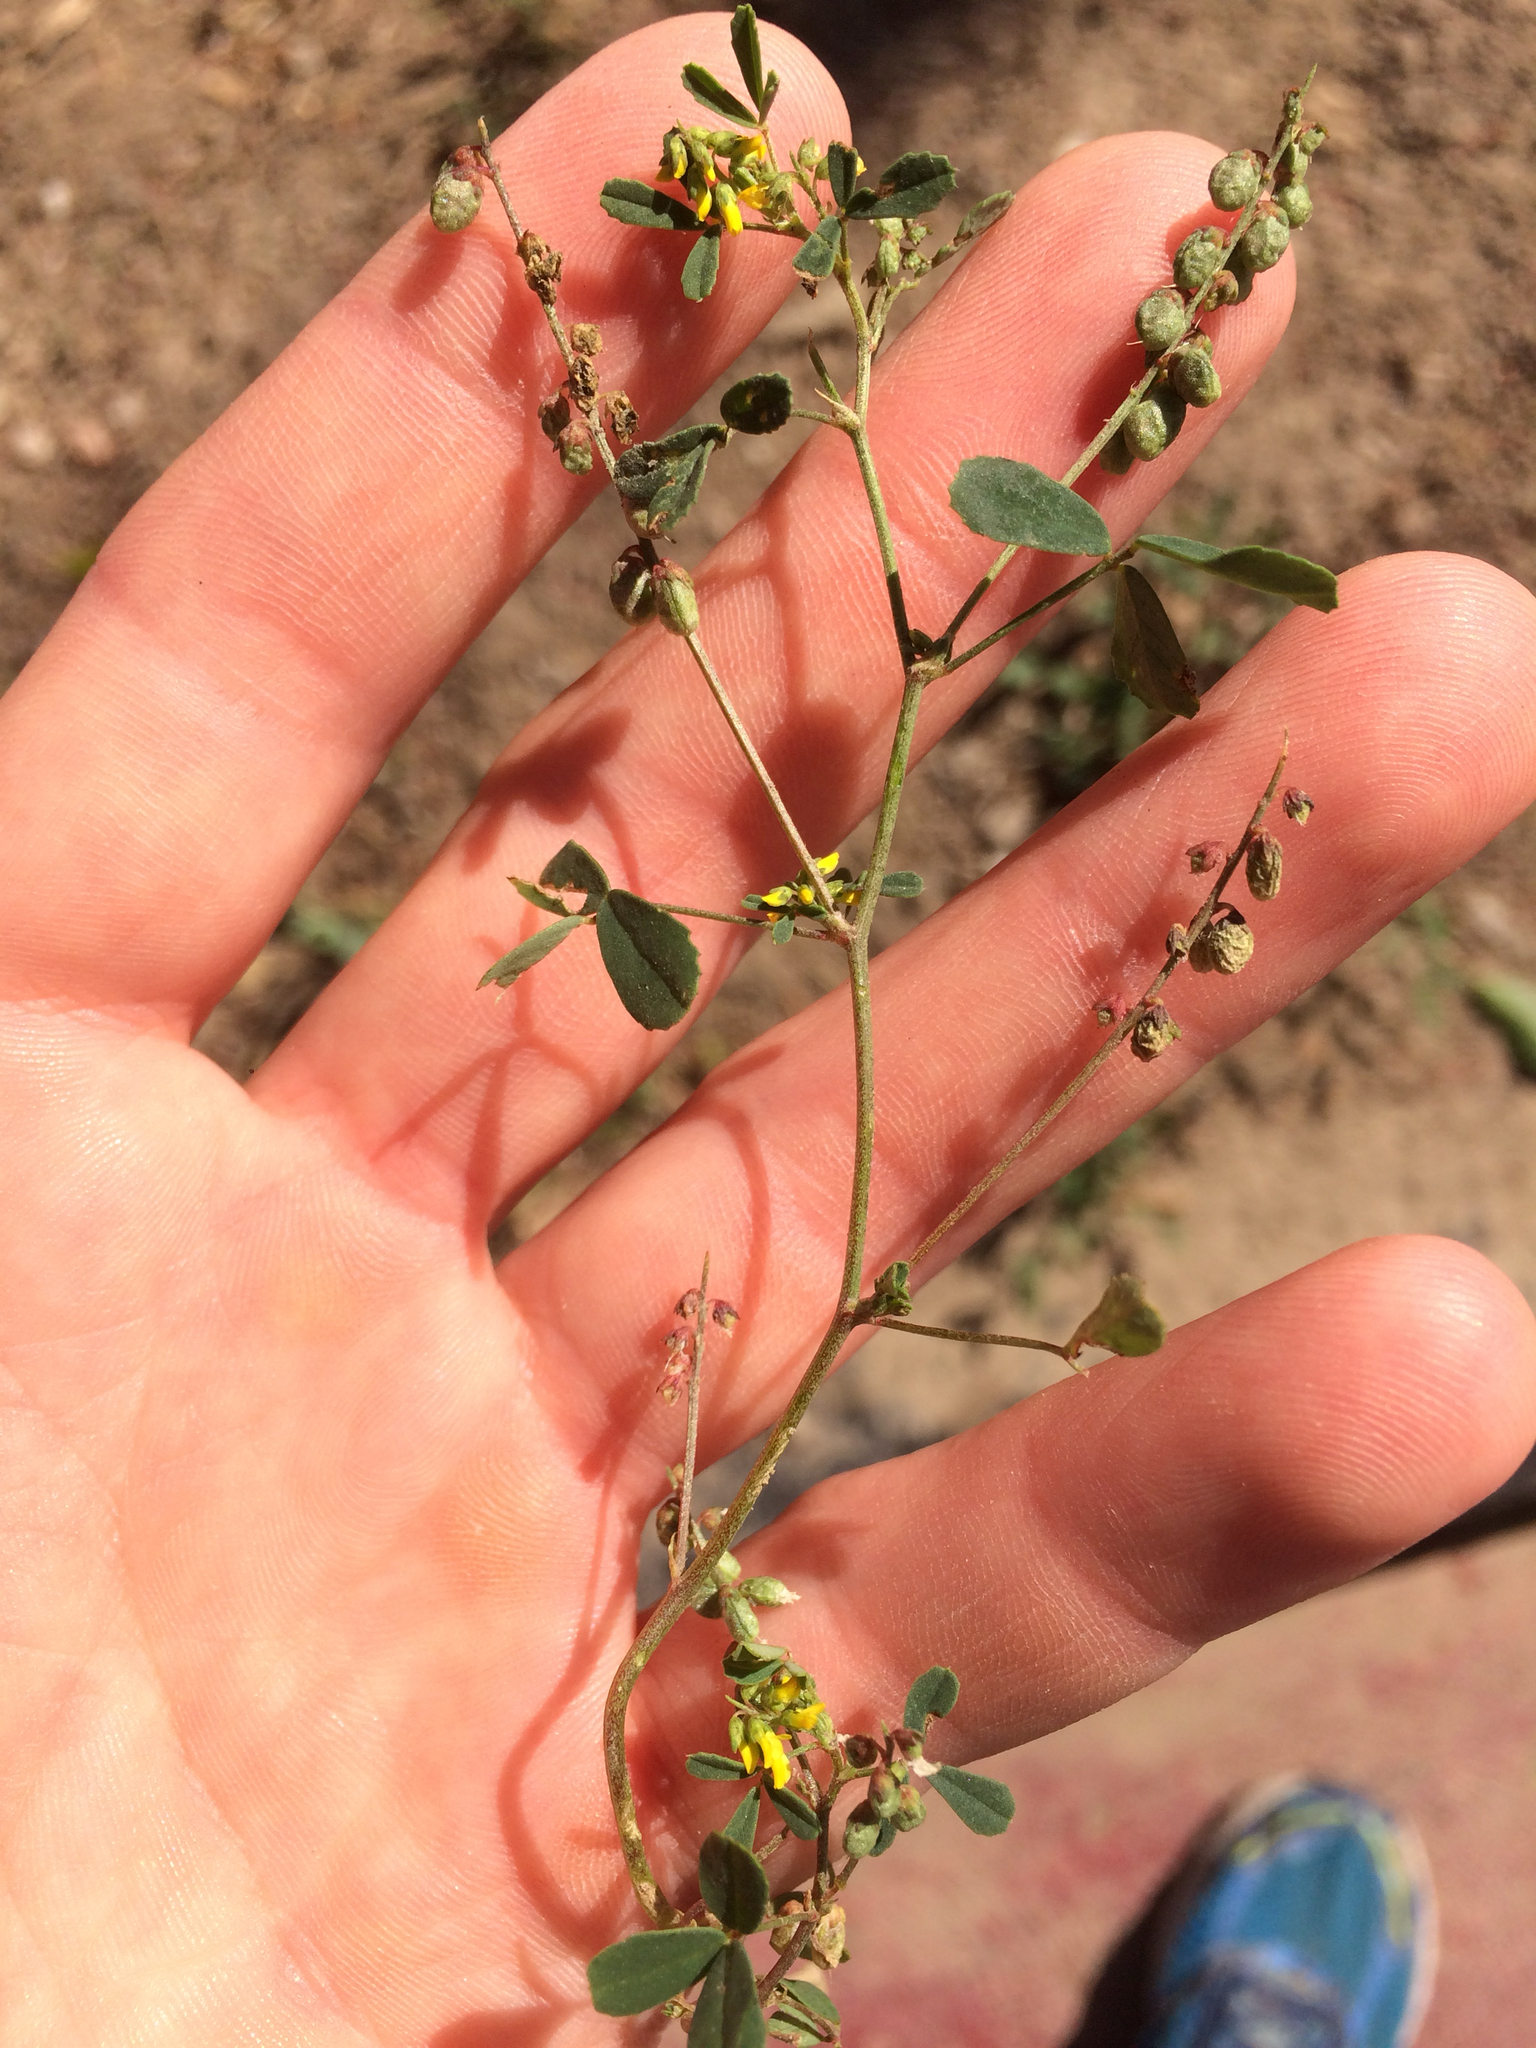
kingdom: Plantae
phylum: Tracheophyta
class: Magnoliopsida
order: Fabales
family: Fabaceae
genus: Melilotus
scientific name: Melilotus indicus
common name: Small melilot
